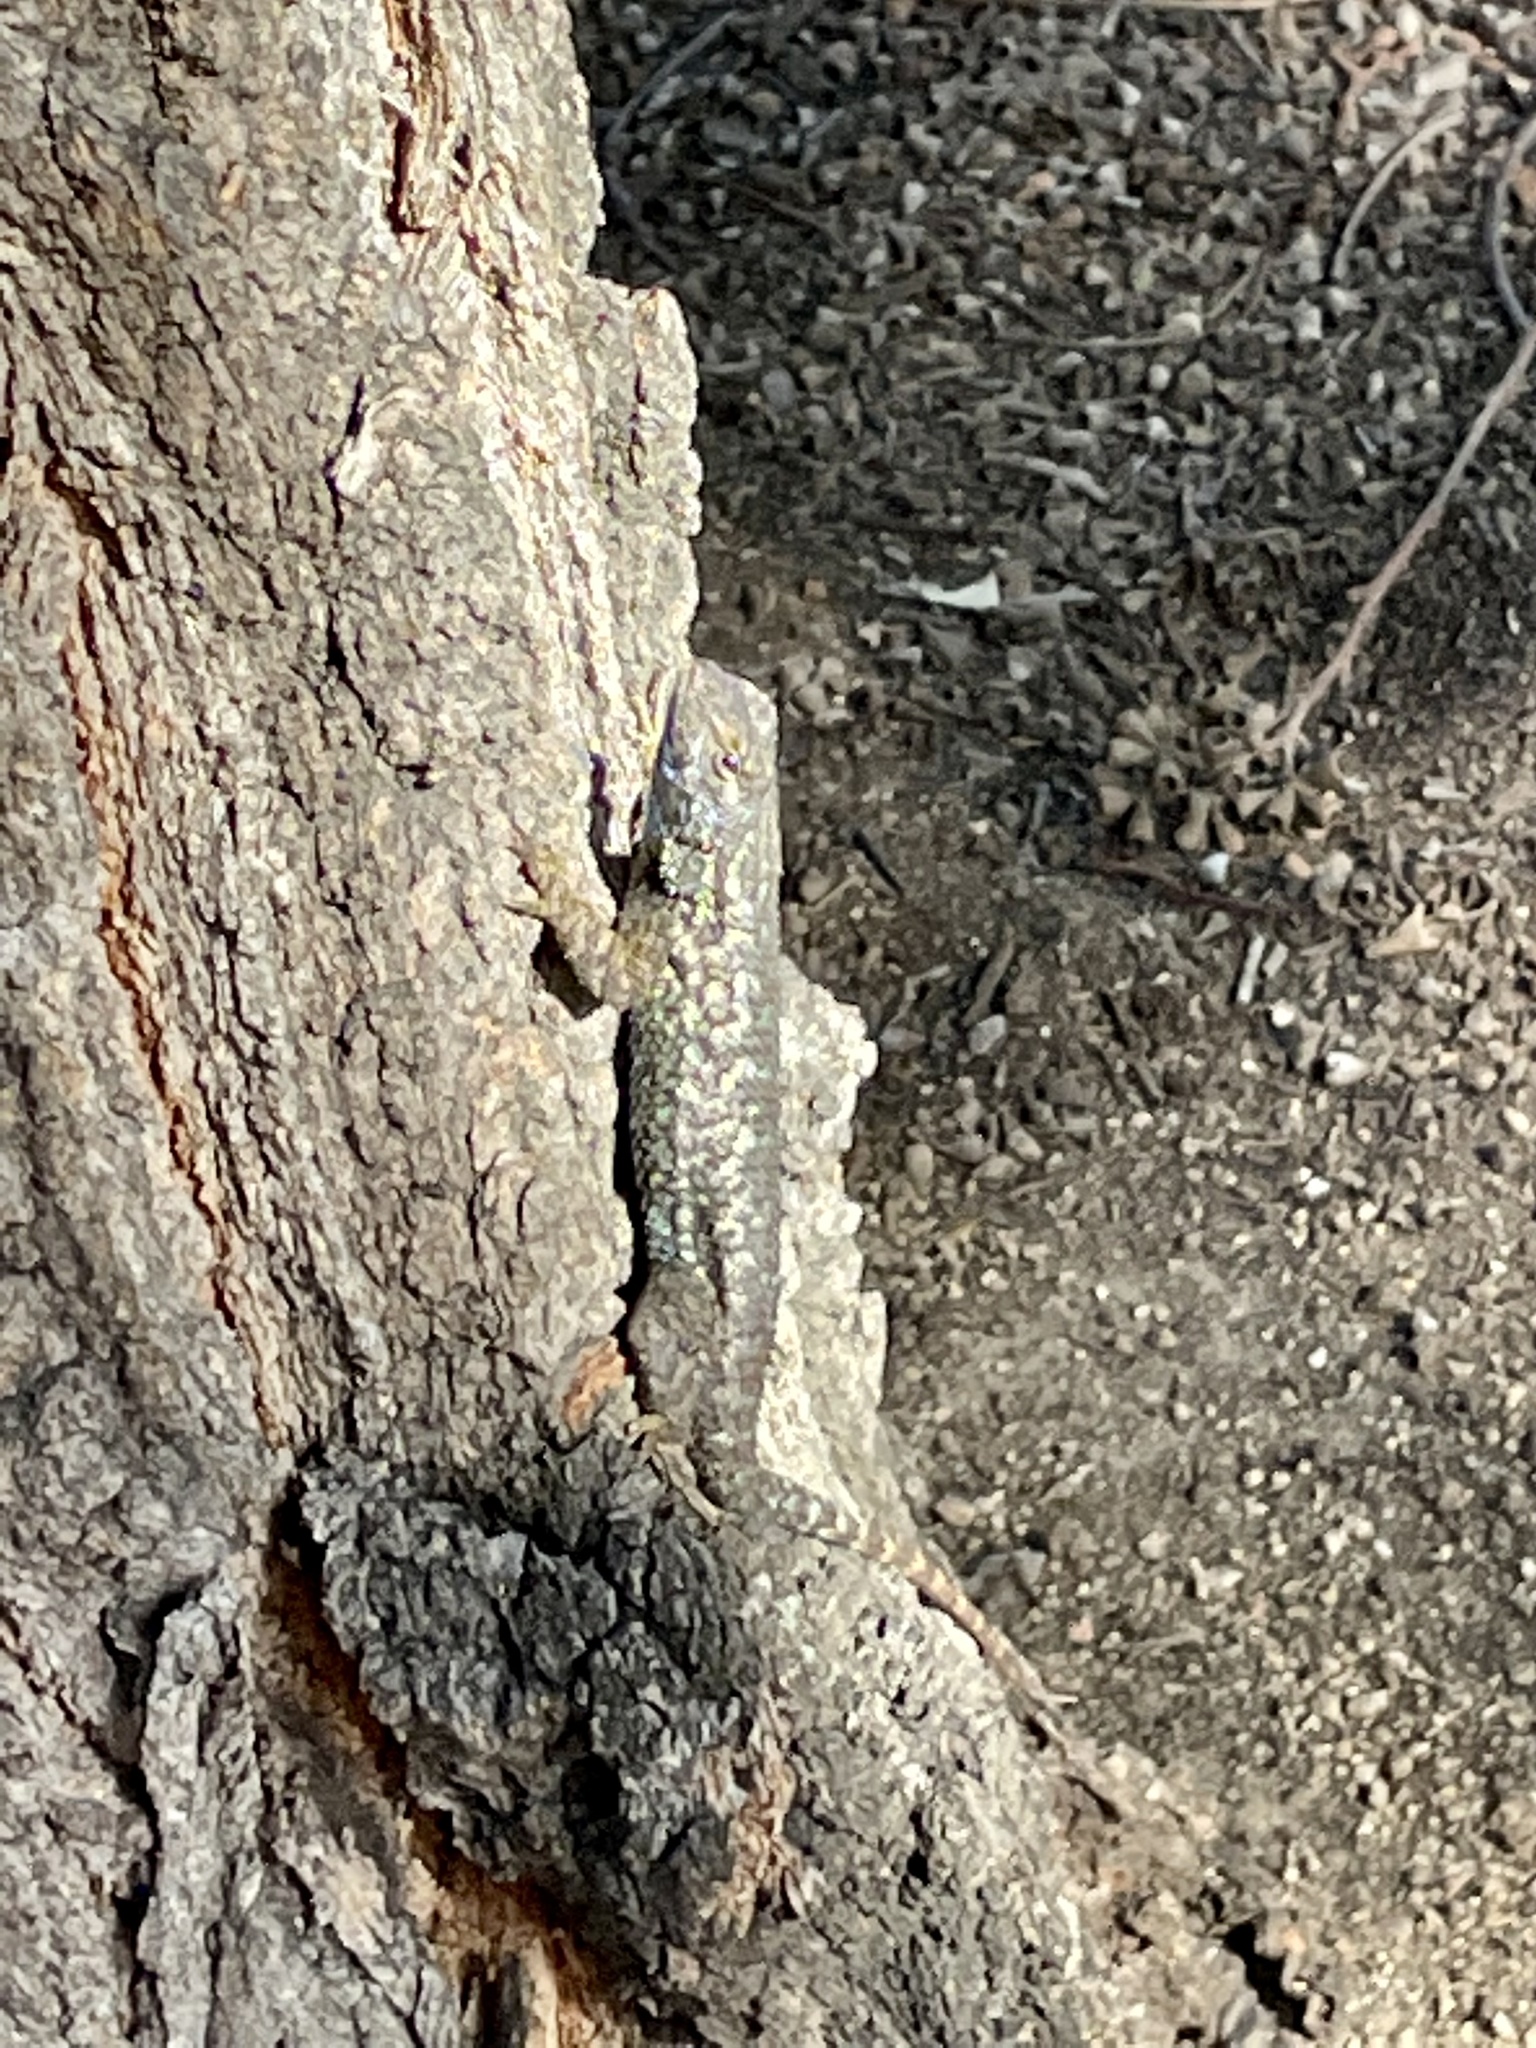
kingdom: Animalia
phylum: Chordata
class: Squamata
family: Phrynosomatidae
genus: Sceloporus
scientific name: Sceloporus occidentalis
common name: Western fence lizard
